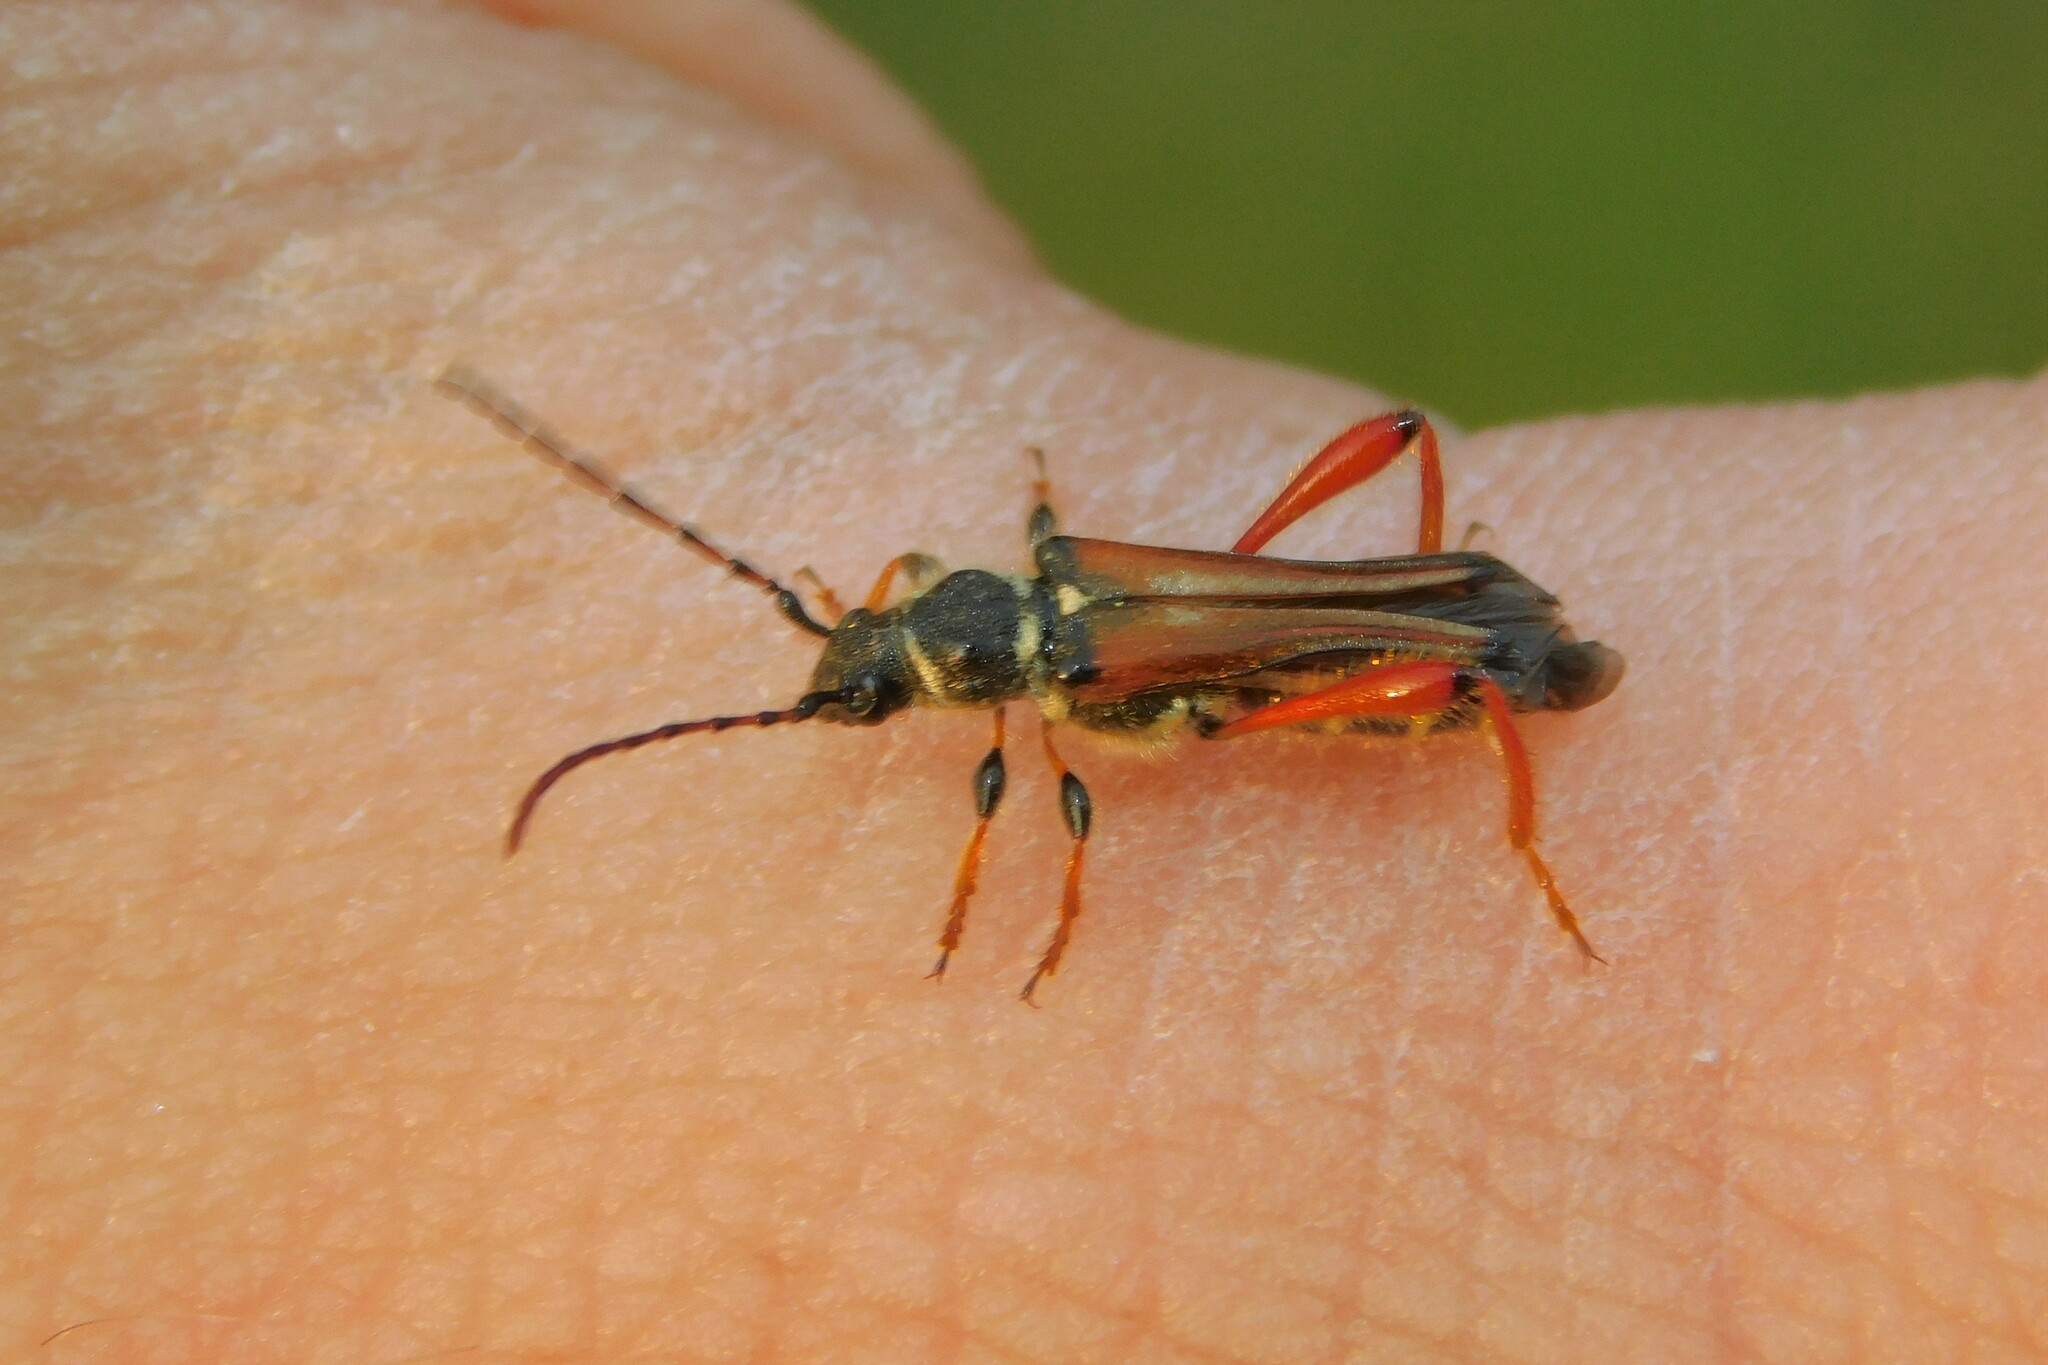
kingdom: Animalia
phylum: Arthropoda
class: Insecta
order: Coleoptera
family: Cerambycidae
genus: Stenopterus
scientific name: Stenopterus rufus
